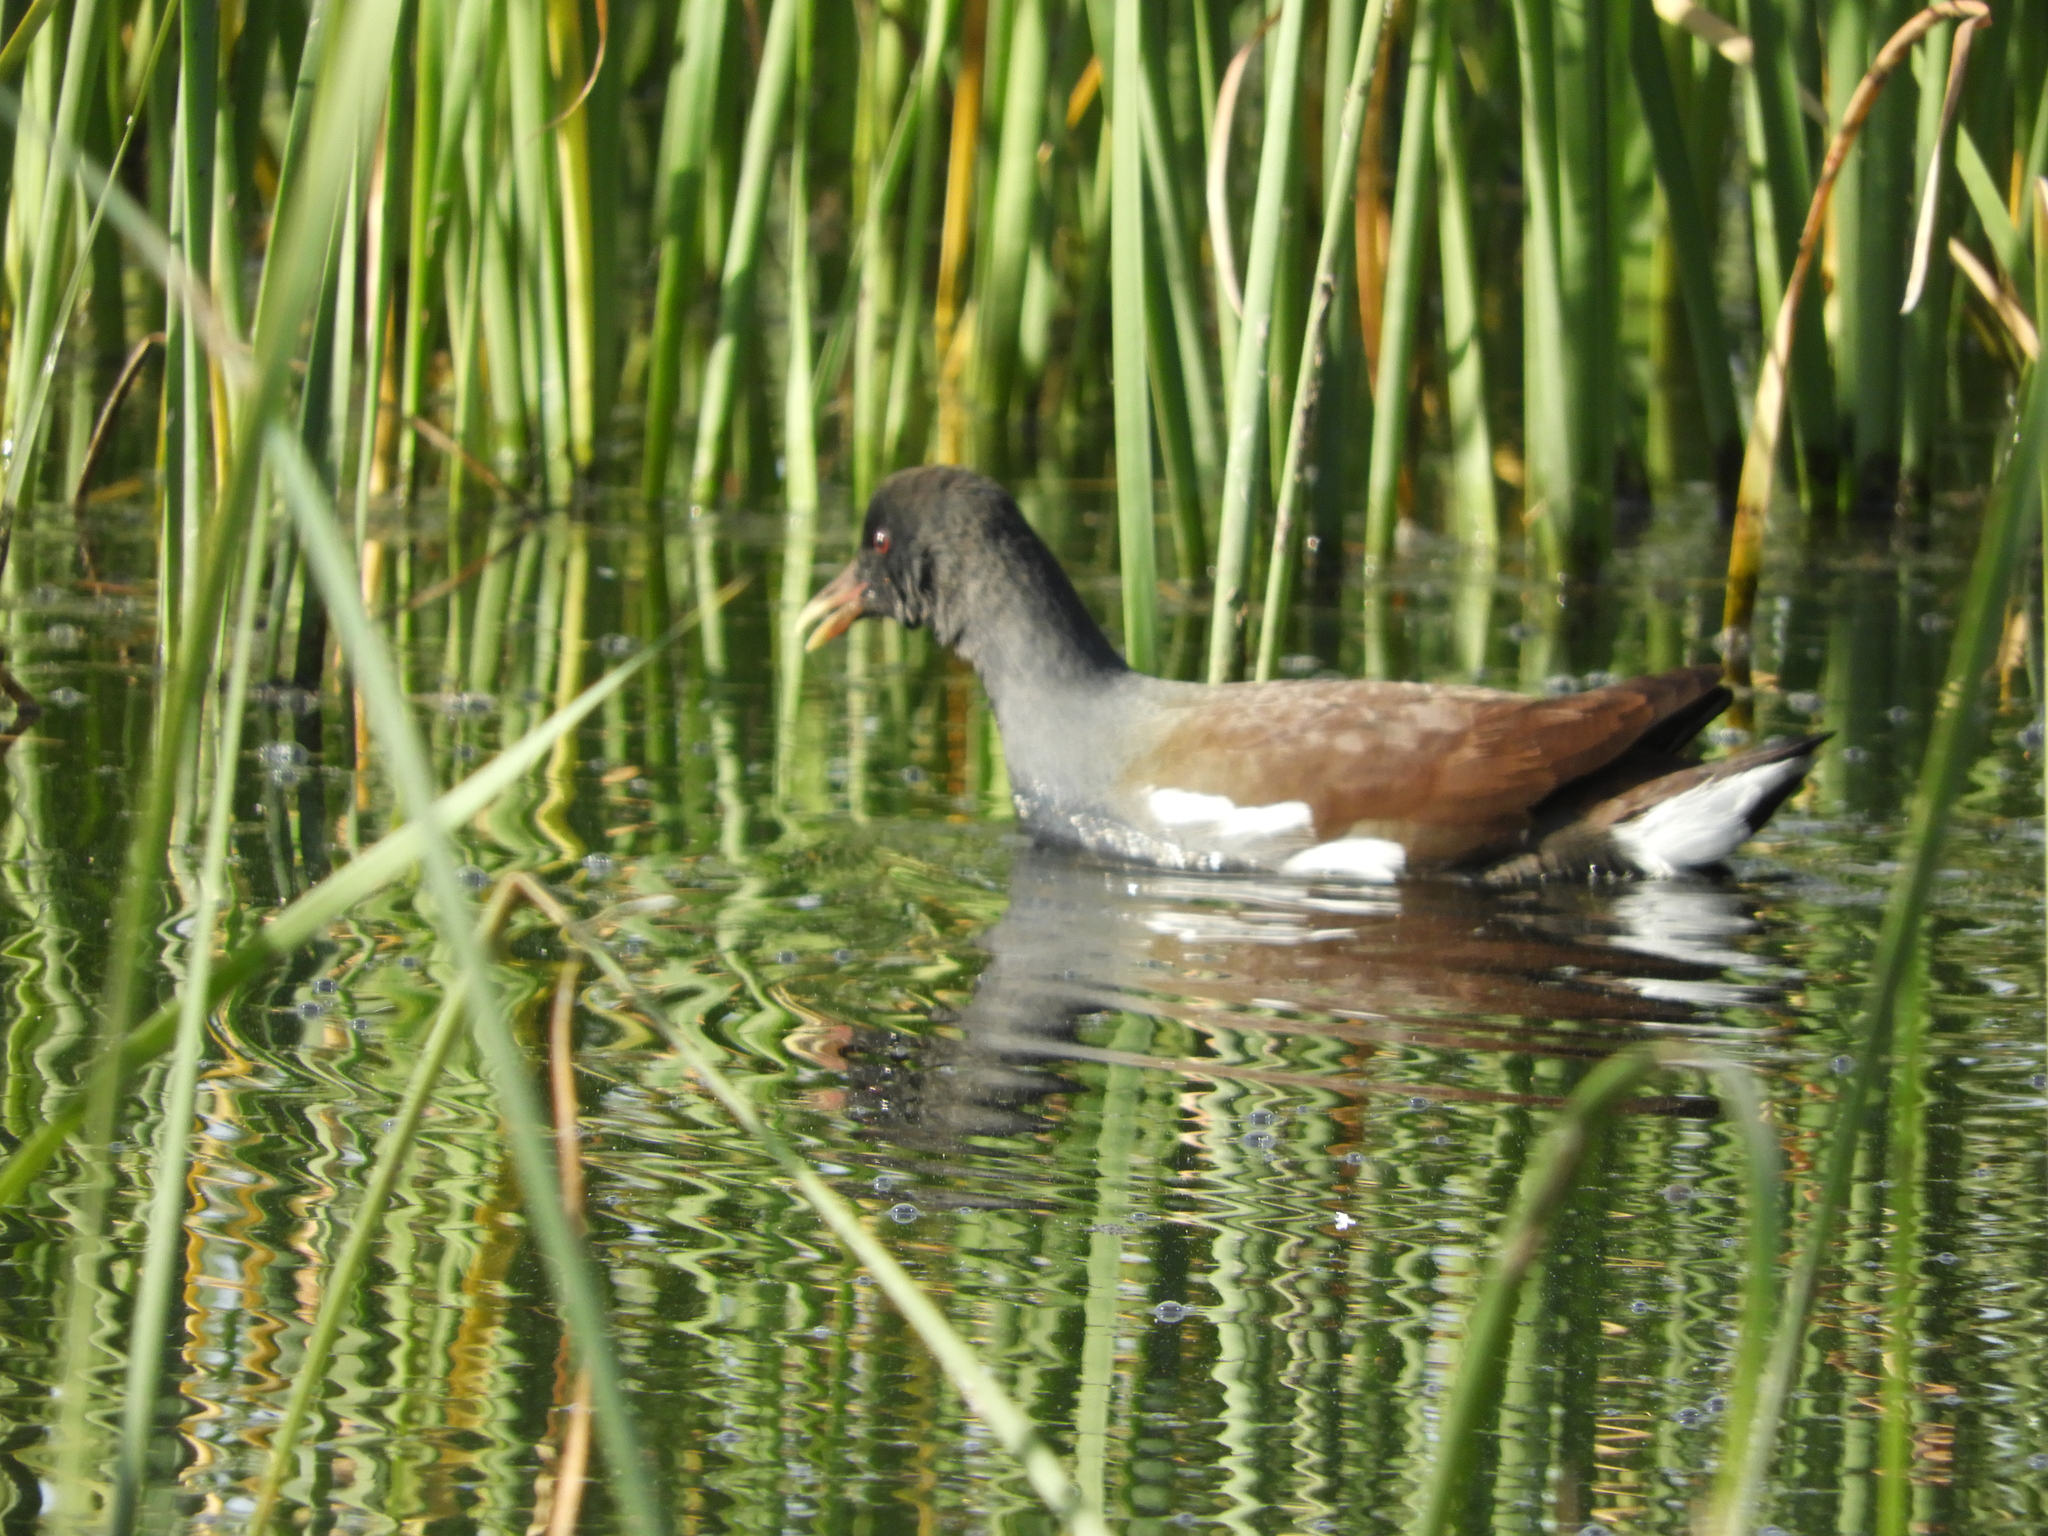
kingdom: Animalia
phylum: Chordata
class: Aves
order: Gruiformes
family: Rallidae
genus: Gallinula
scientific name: Gallinula chloropus
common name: Common moorhen
